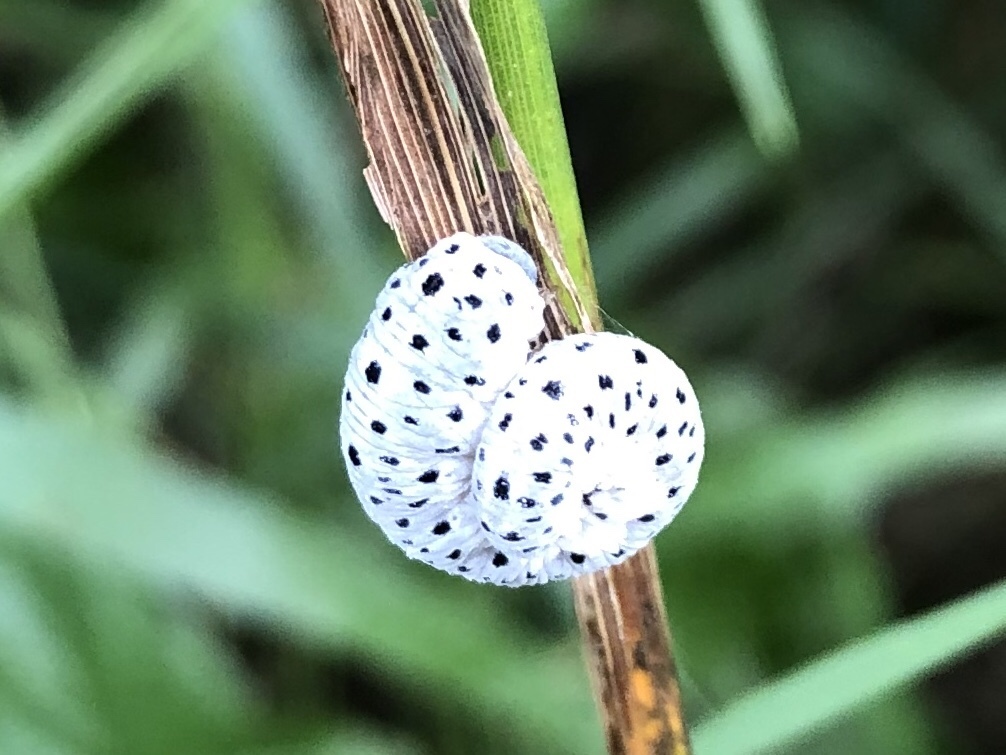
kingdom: Animalia
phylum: Arthropoda
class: Insecta
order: Hymenoptera
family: Tenthredinidae
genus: Tenthredo
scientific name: Tenthredo scrophulariae
